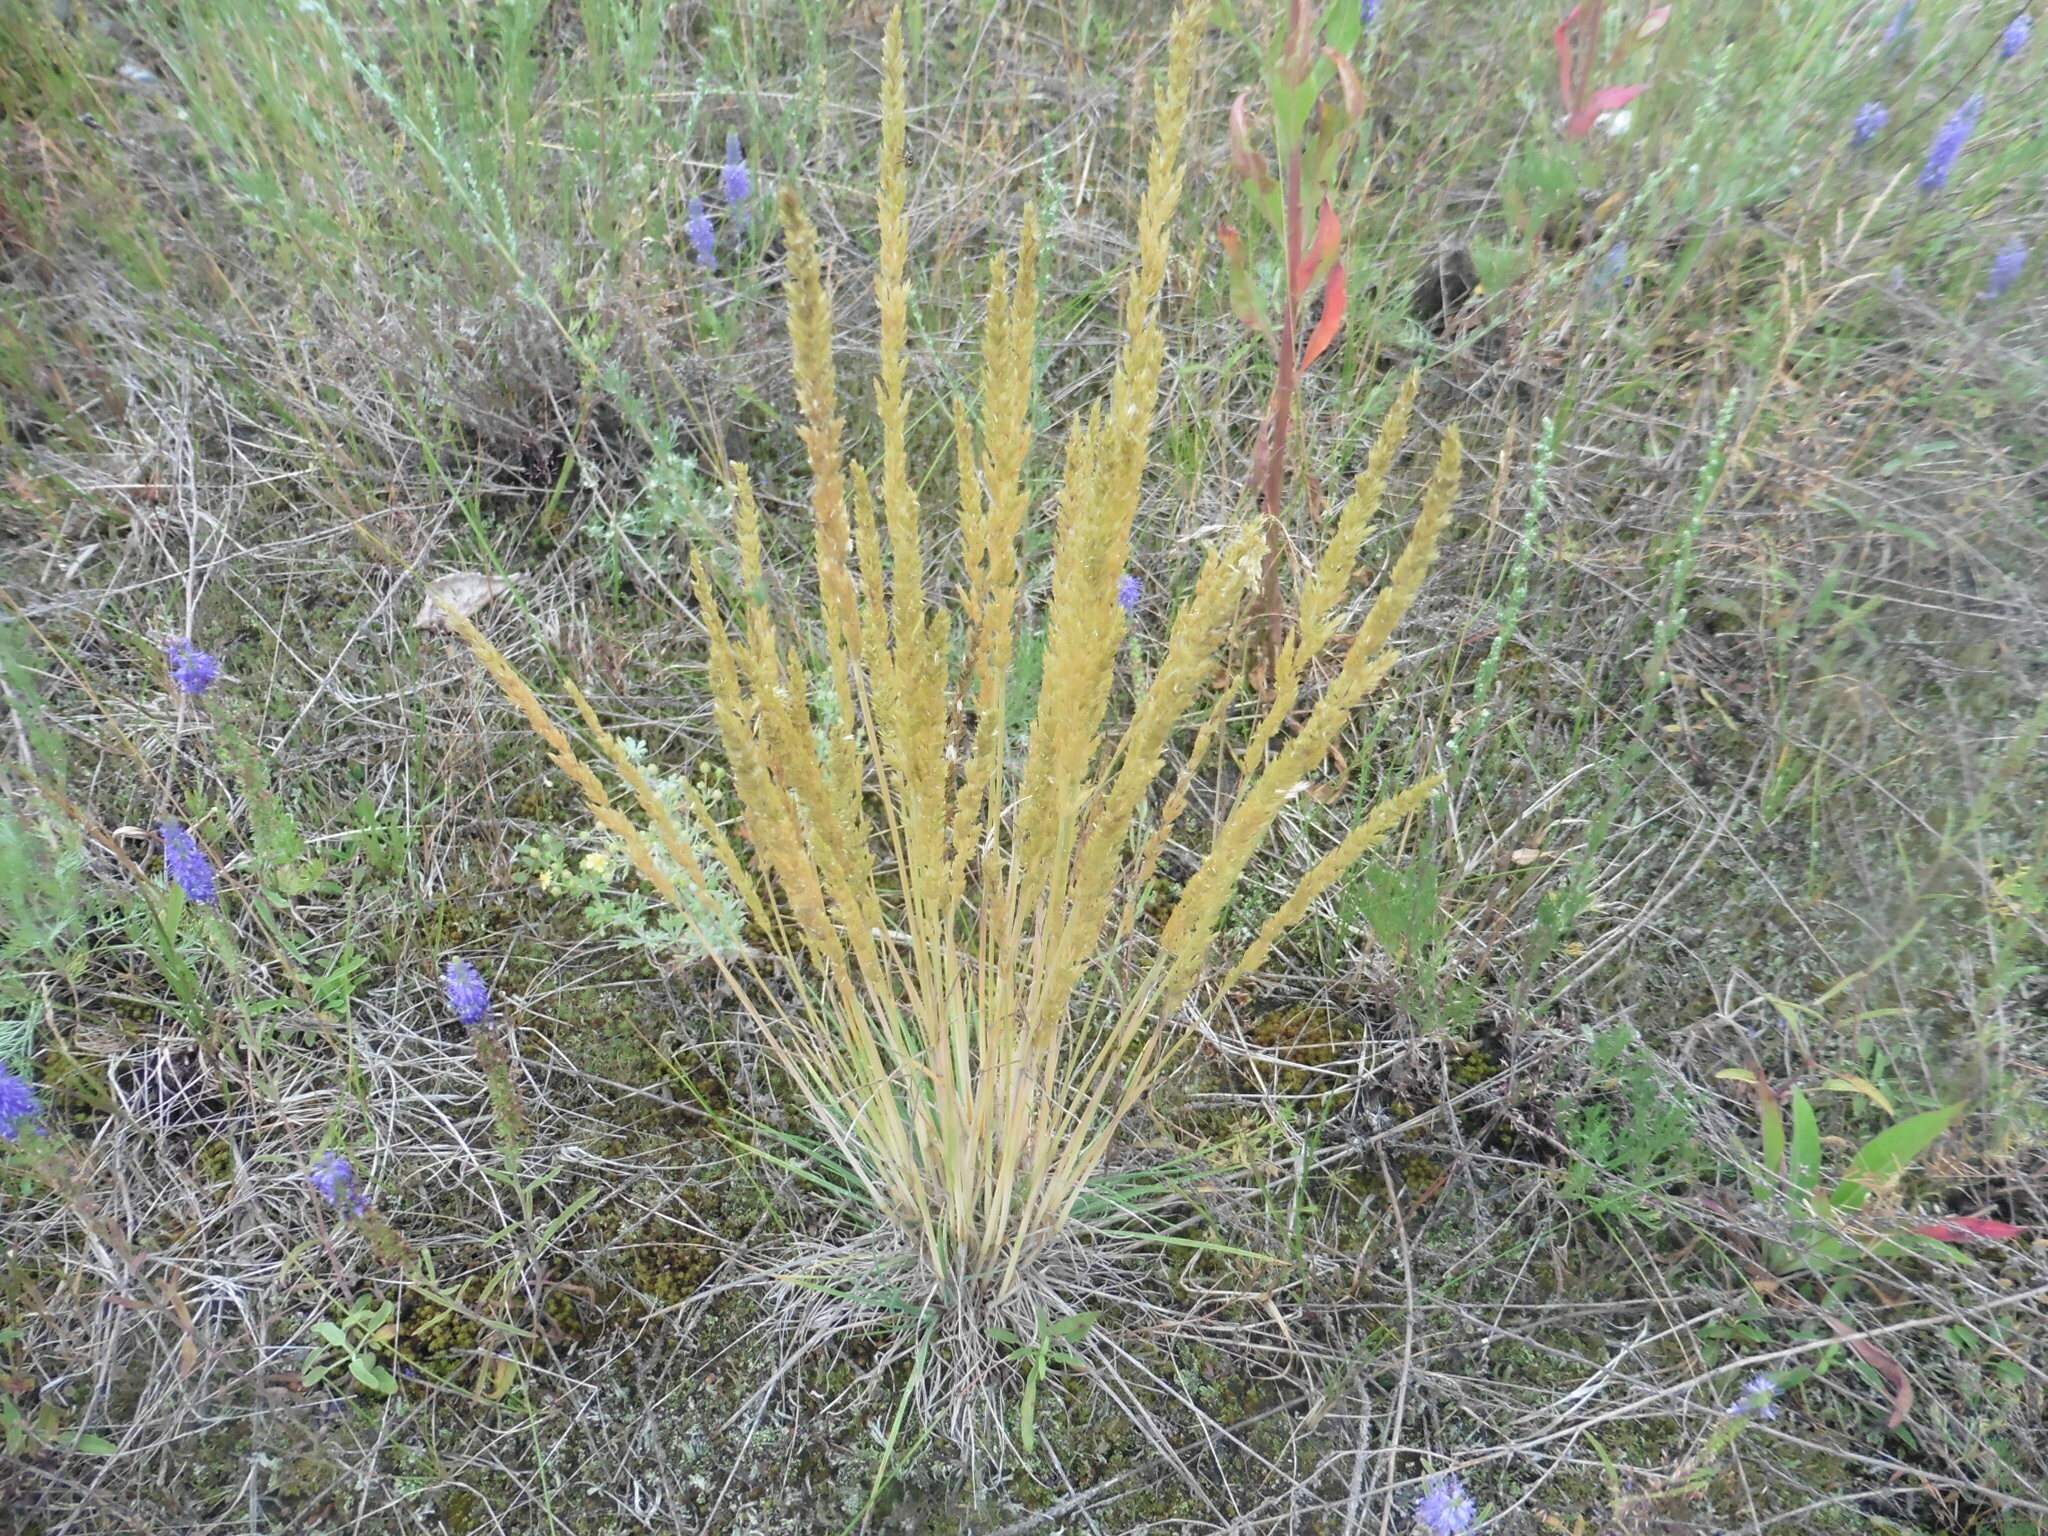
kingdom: Plantae
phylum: Tracheophyta
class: Liliopsida
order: Poales
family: Poaceae
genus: Koeleria
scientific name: Koeleria glauca
